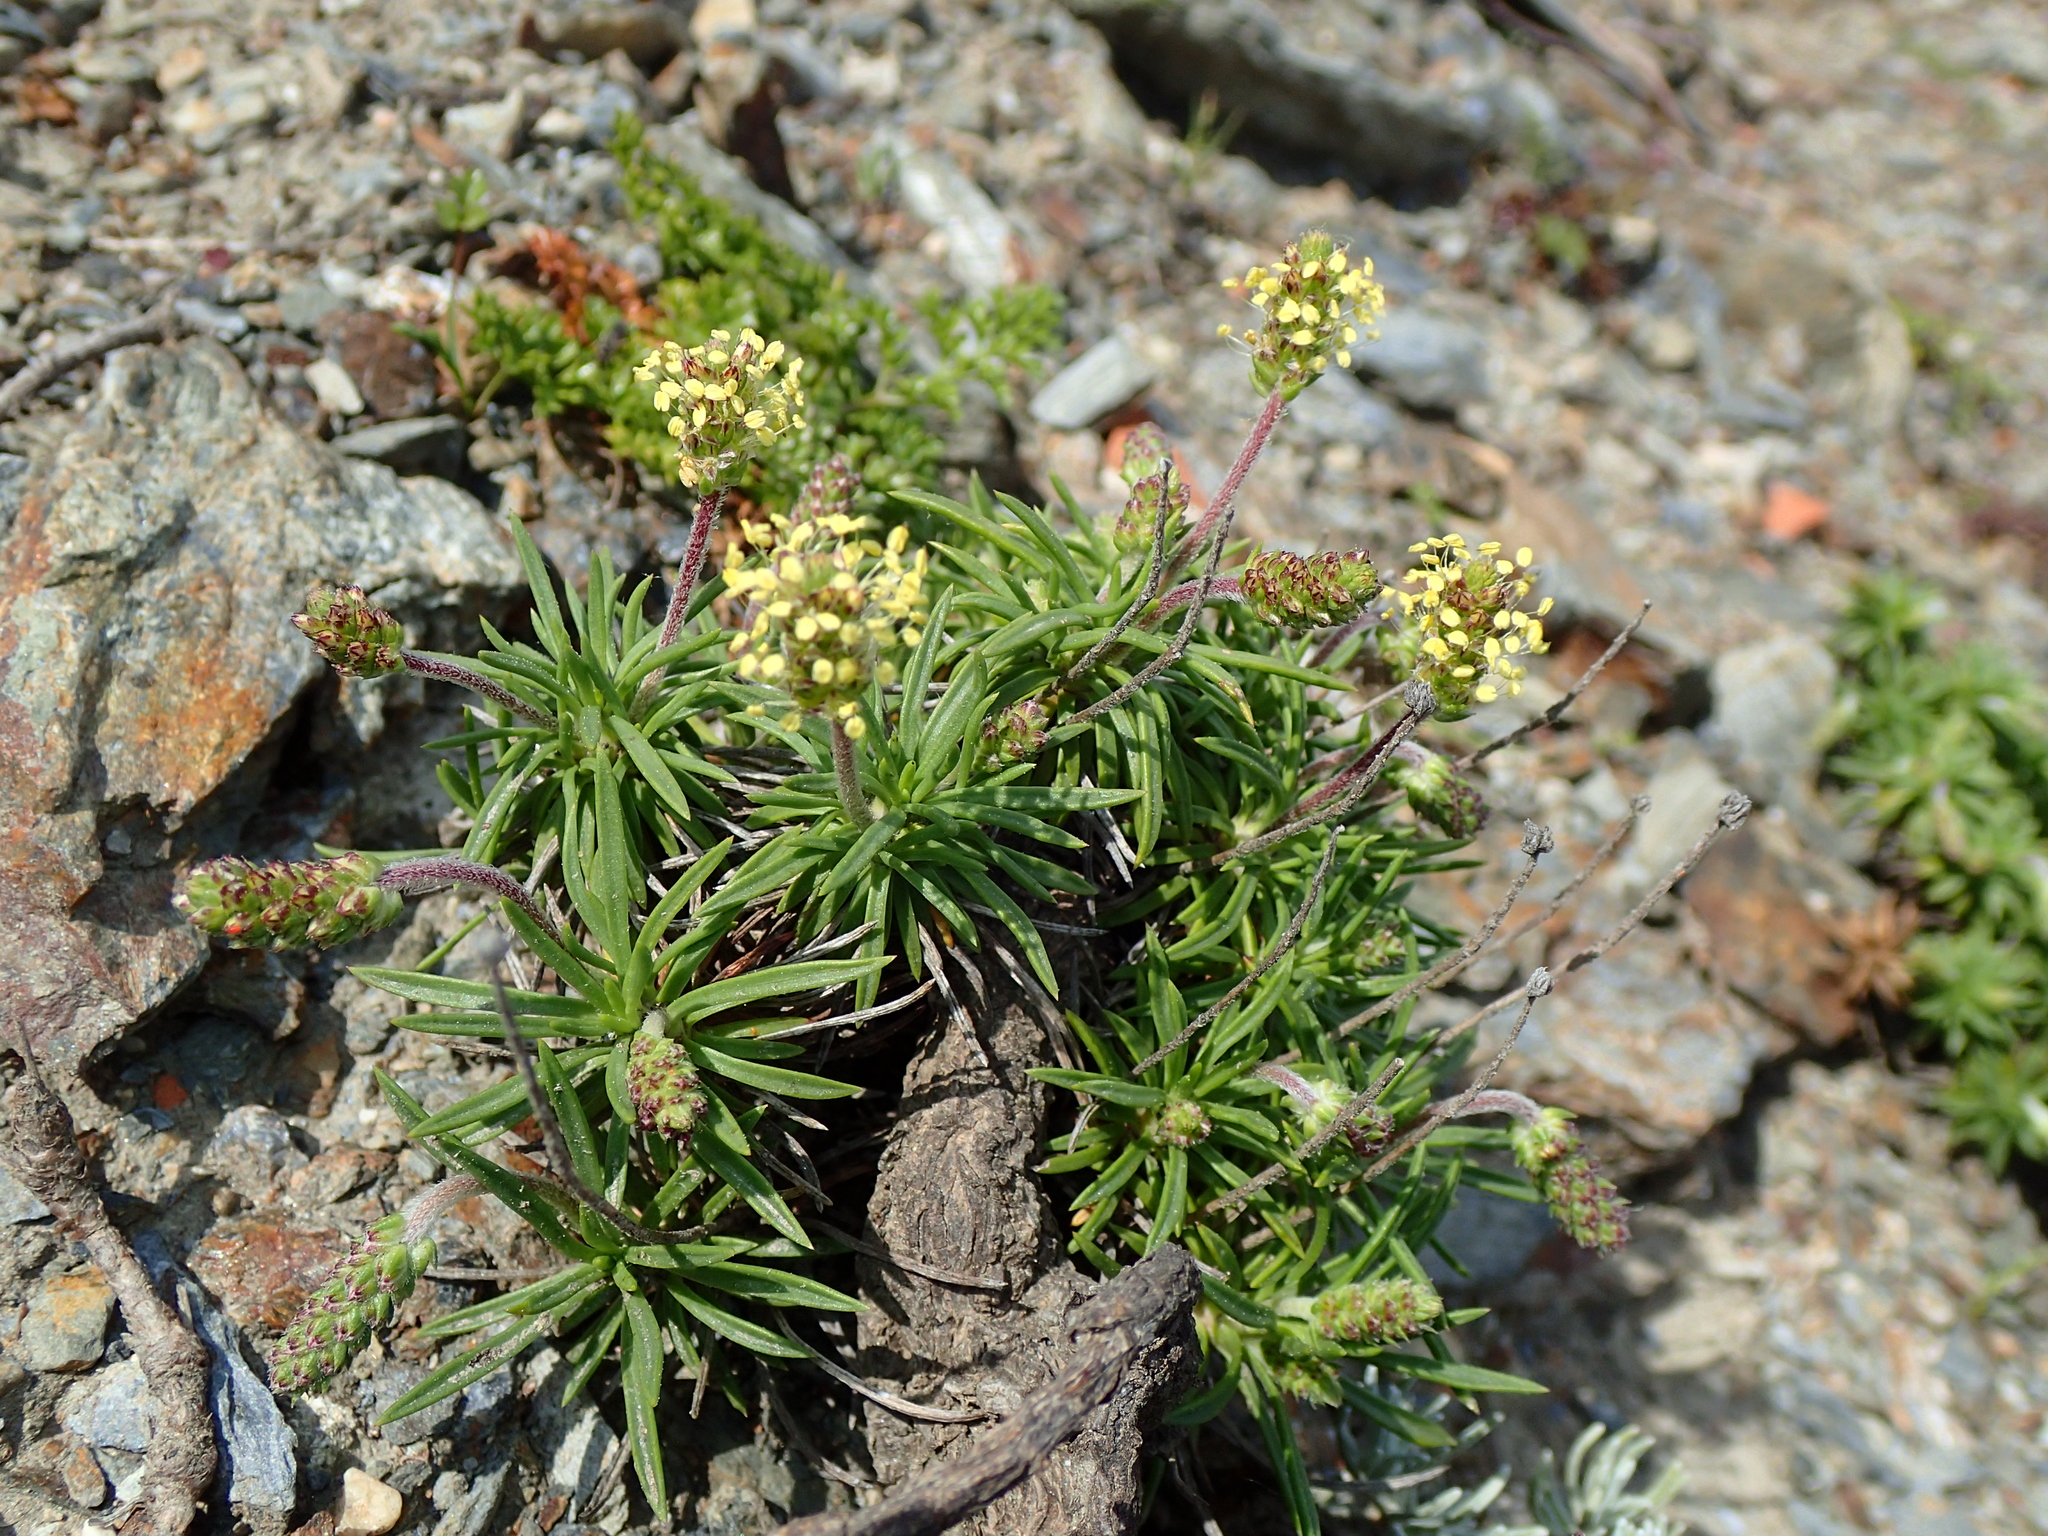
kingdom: Plantae
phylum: Tracheophyta
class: Magnoliopsida
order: Lamiales
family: Plantaginaceae
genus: Plantago
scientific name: Plantago subulata
